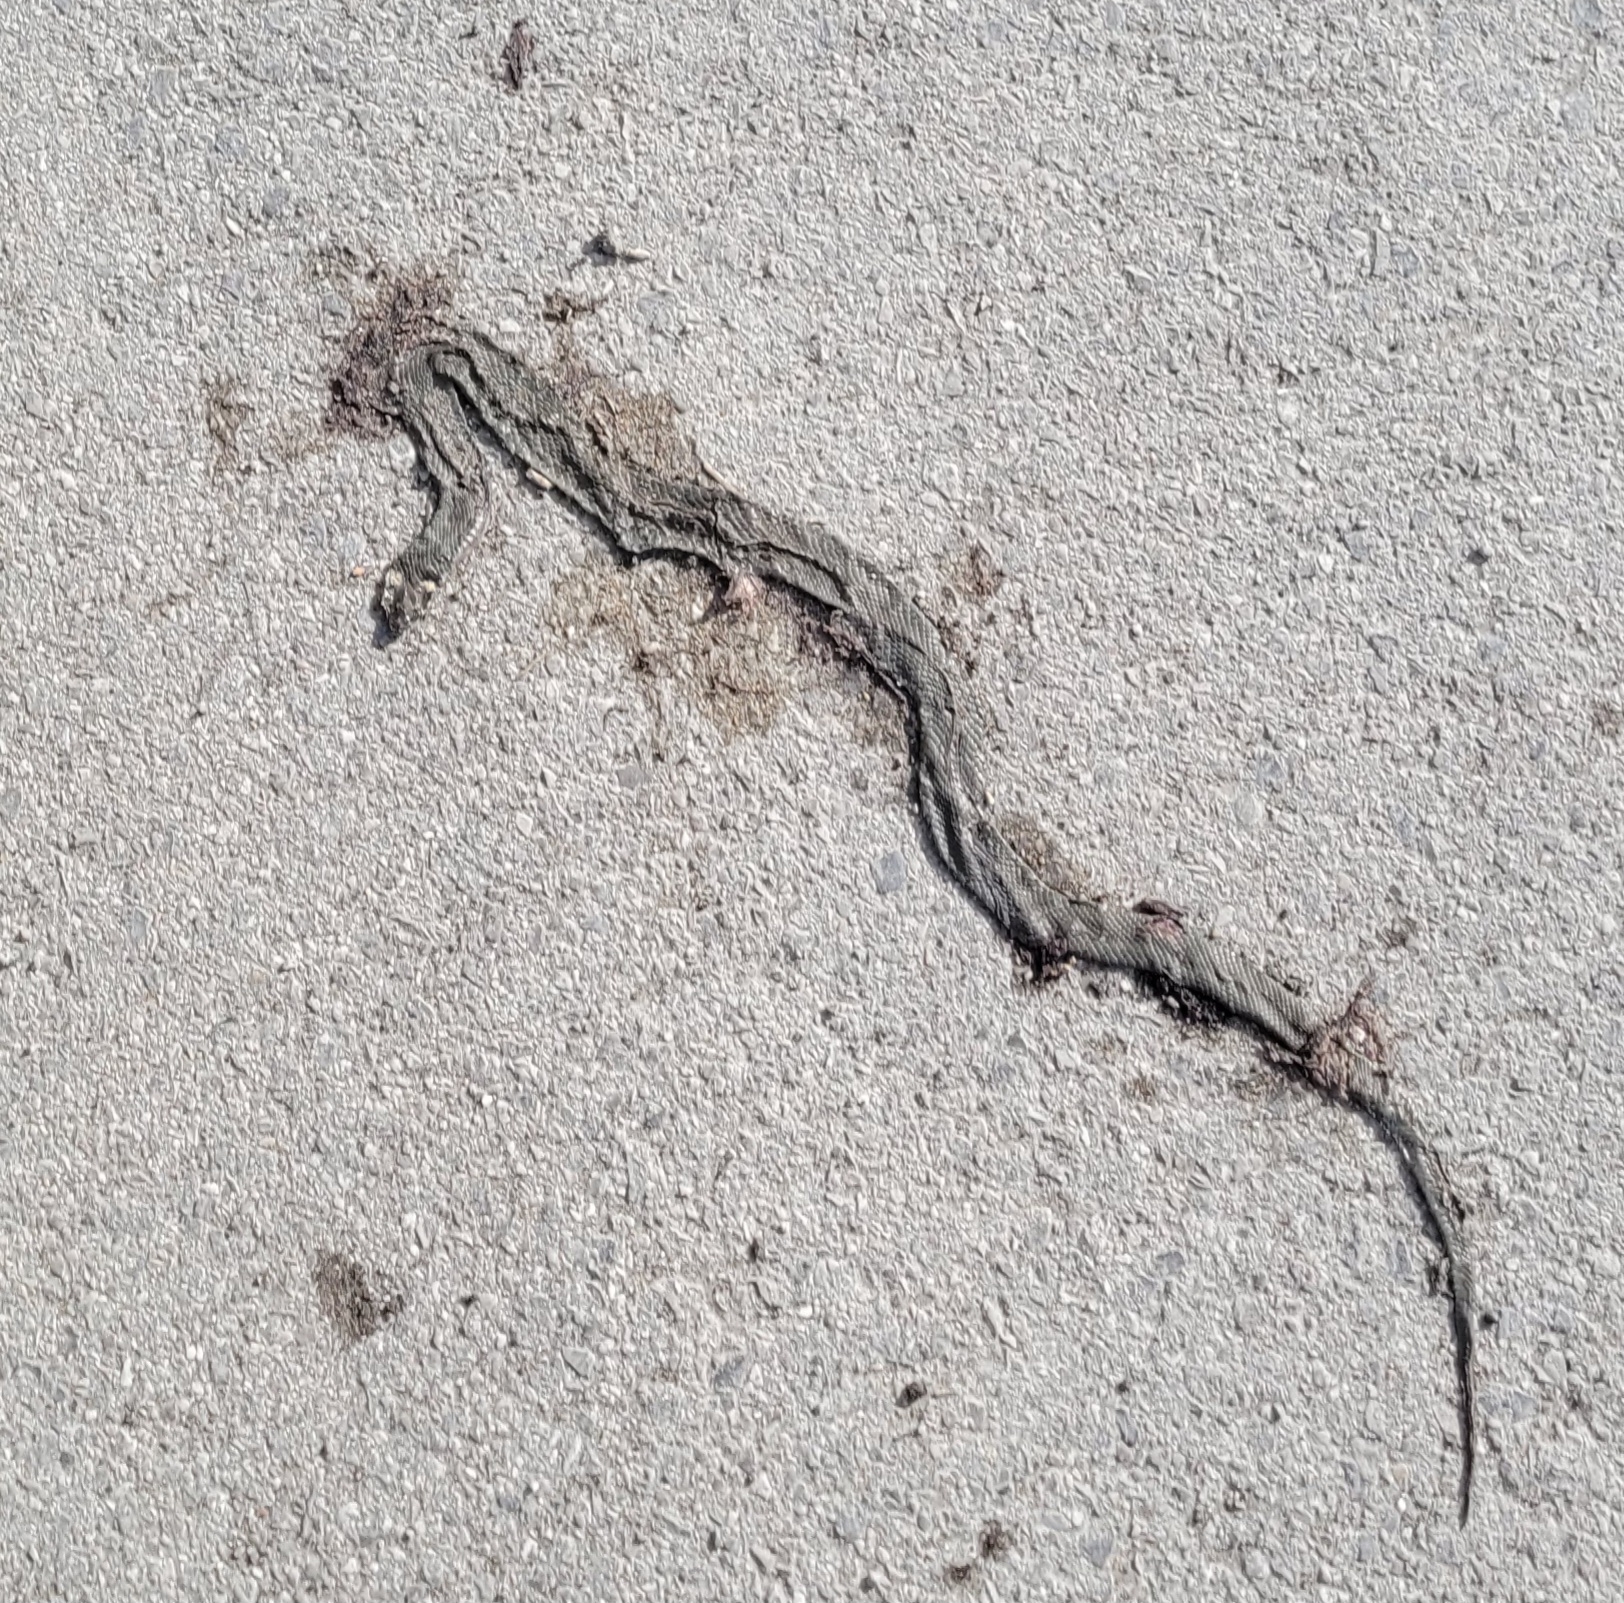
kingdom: Animalia
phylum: Chordata
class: Squamata
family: Colubridae
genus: Natrix
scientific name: Natrix natrix
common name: Grass snake
